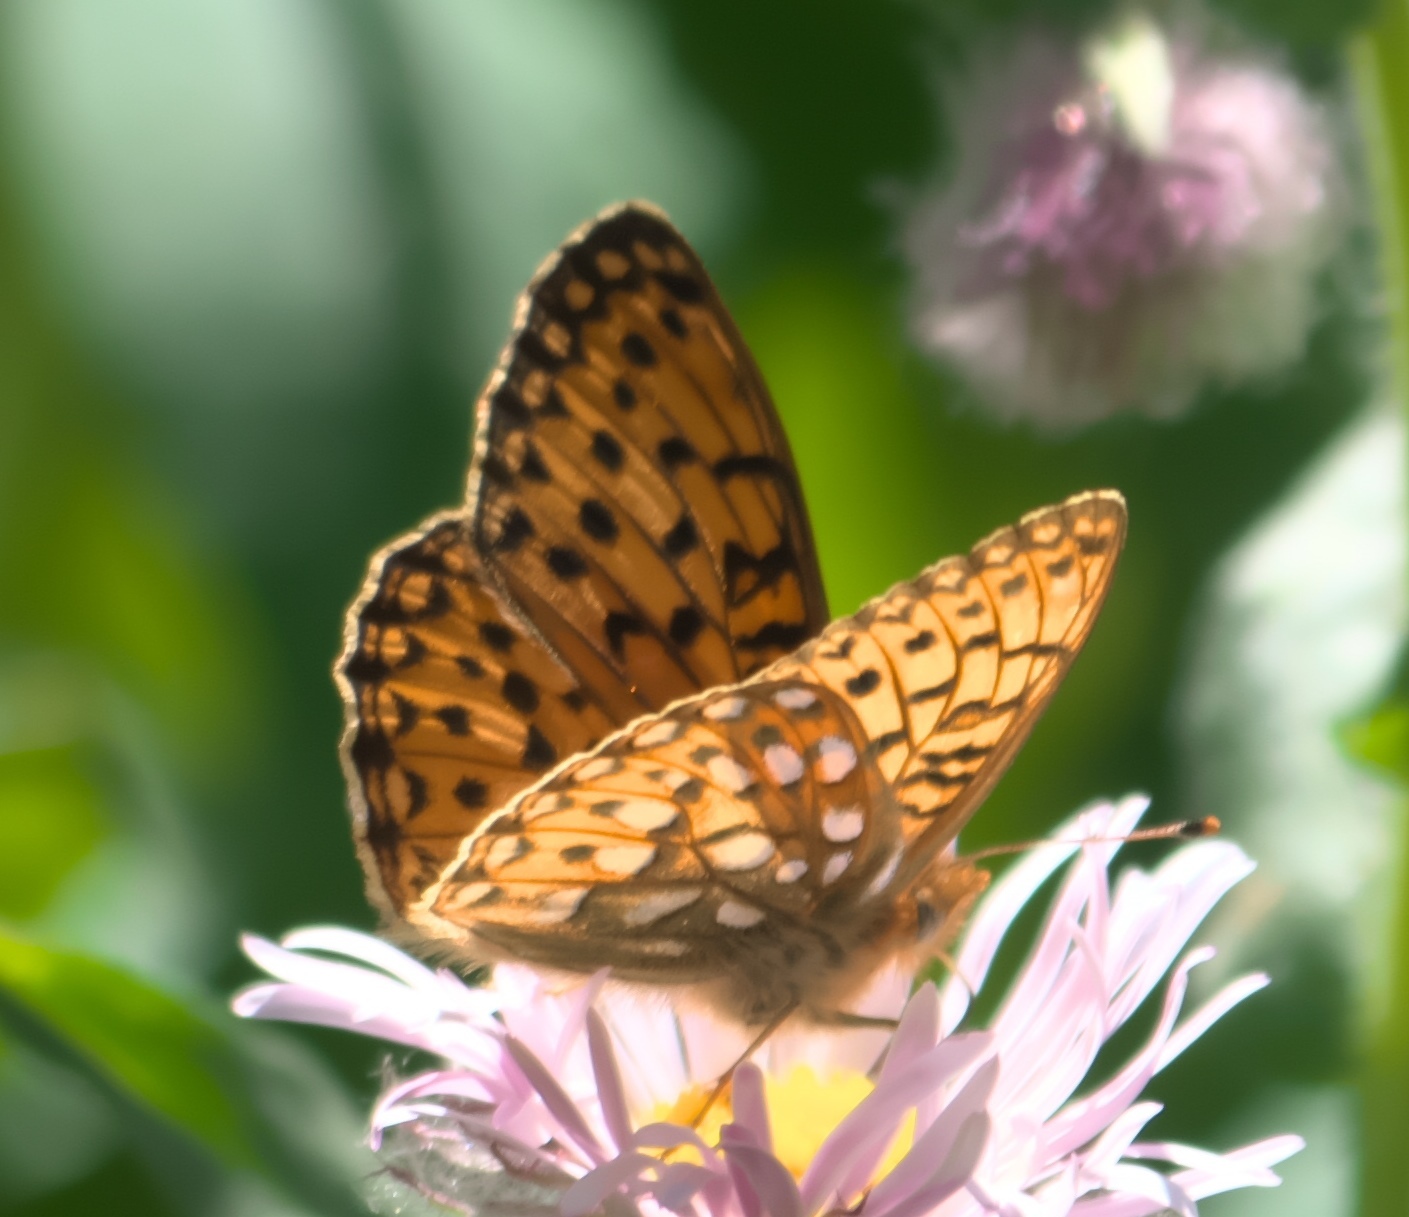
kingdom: Animalia
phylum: Arthropoda
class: Insecta
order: Lepidoptera
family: Nymphalidae
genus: Speyeria
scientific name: Speyeria mormonia
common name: Mormon fritillary
